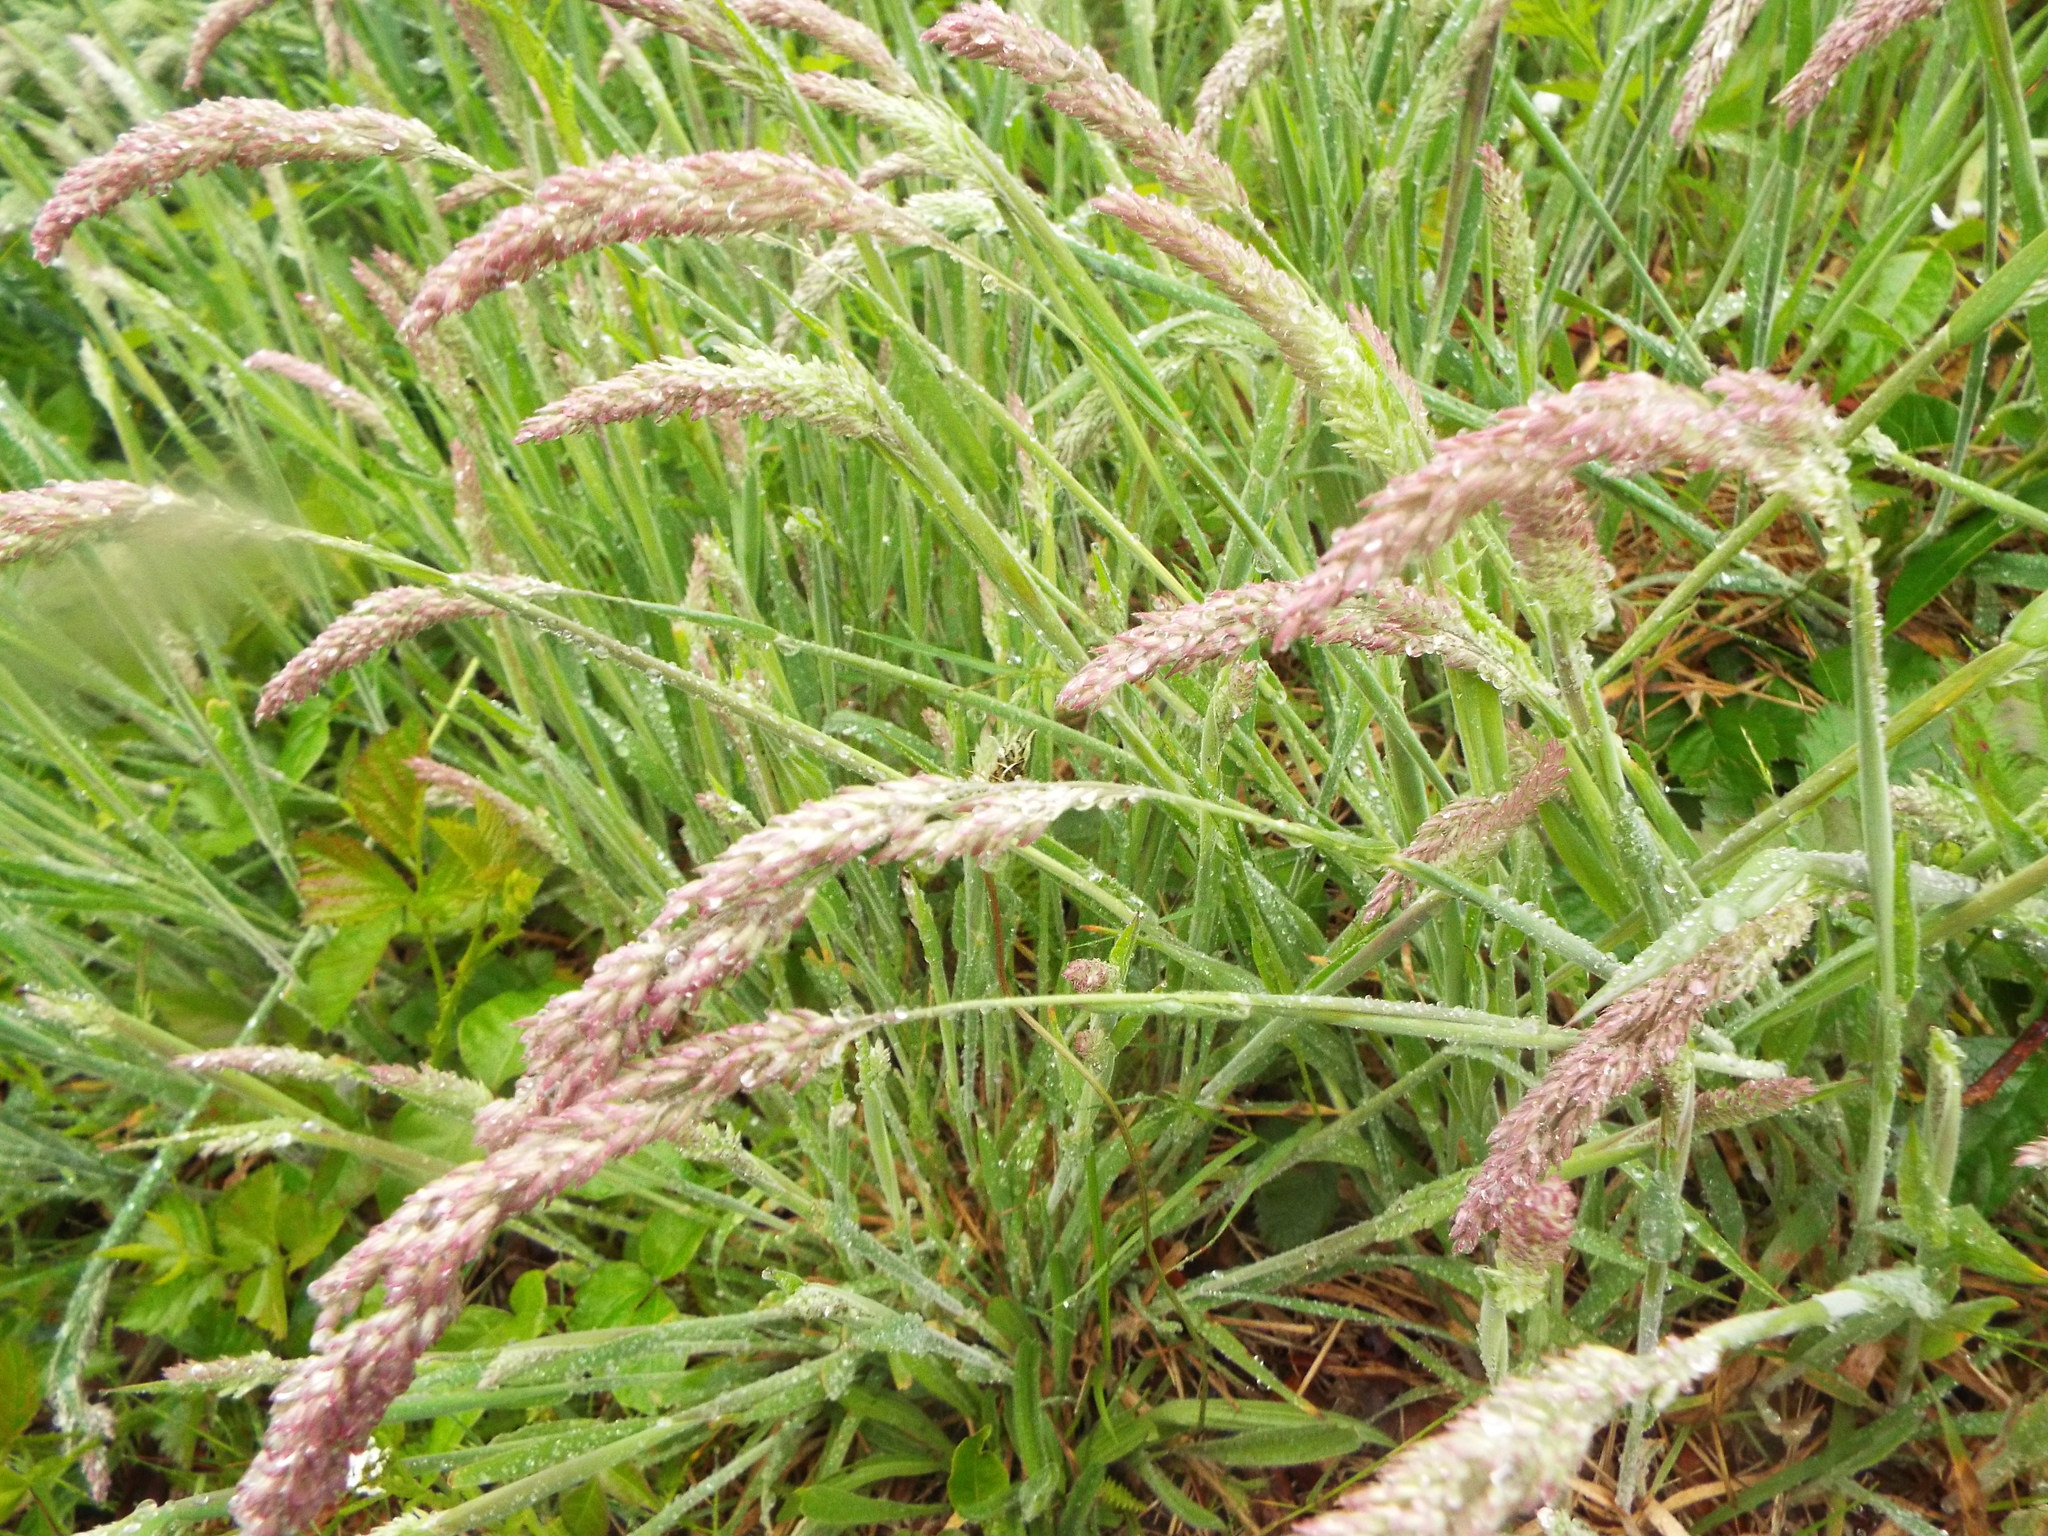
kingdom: Plantae
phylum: Tracheophyta
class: Liliopsida
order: Poales
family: Poaceae
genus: Holcus
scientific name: Holcus lanatus
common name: Yorkshire-fog
